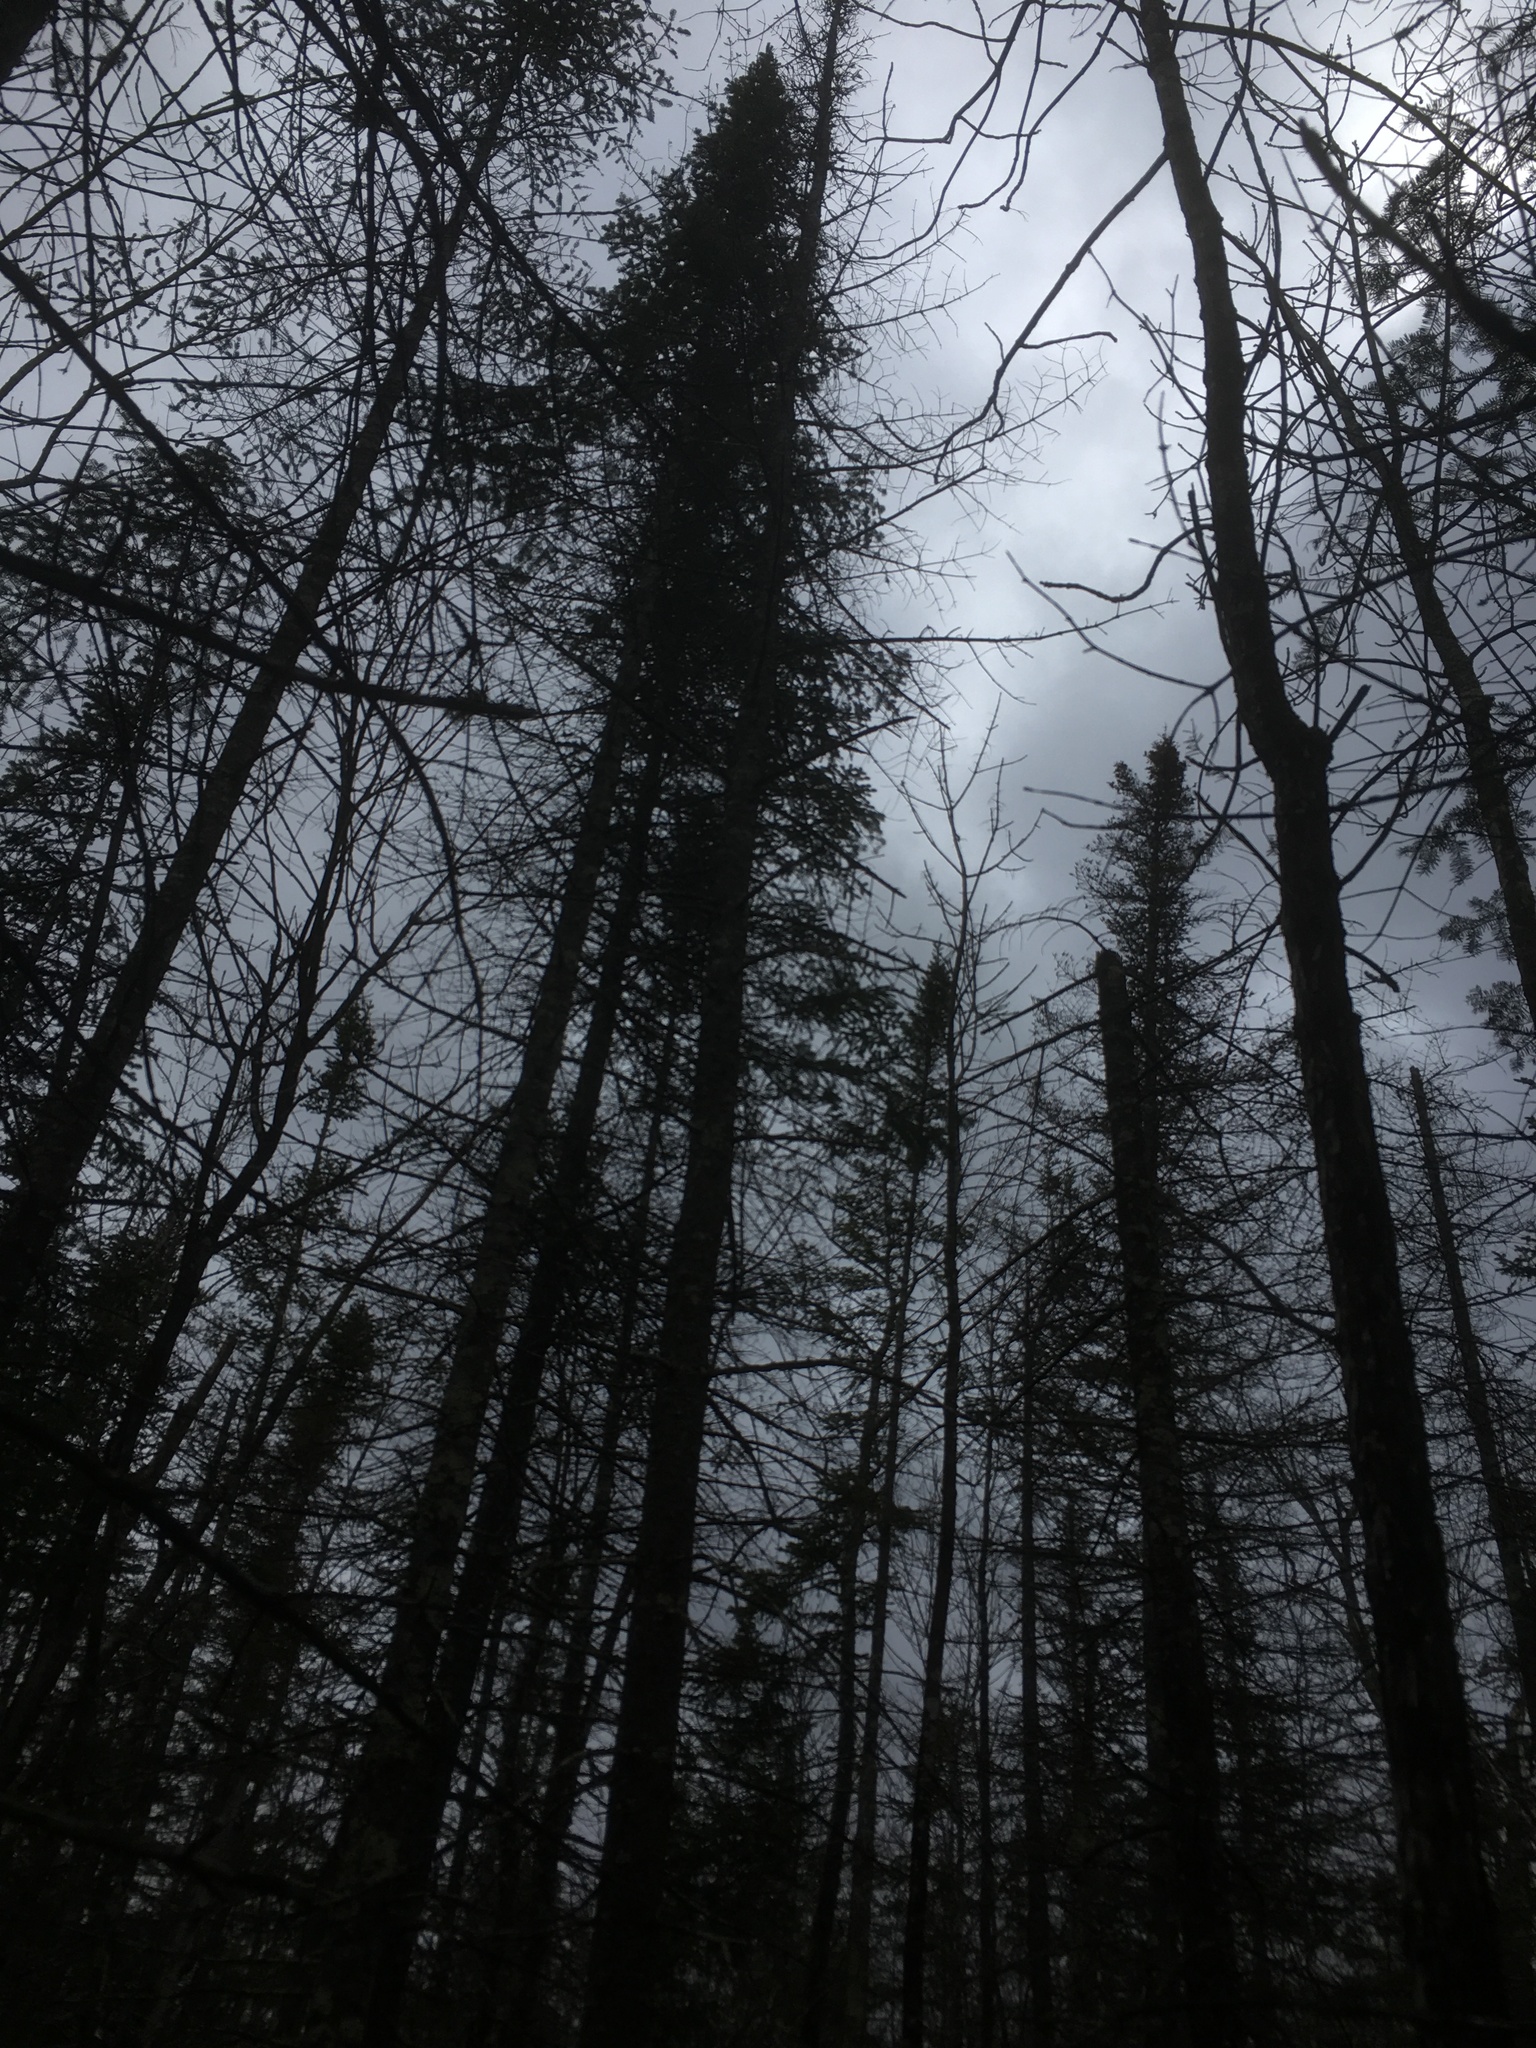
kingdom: Plantae
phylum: Tracheophyta
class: Pinopsida
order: Pinales
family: Pinaceae
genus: Abies
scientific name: Abies balsamea
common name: Balsam fir
